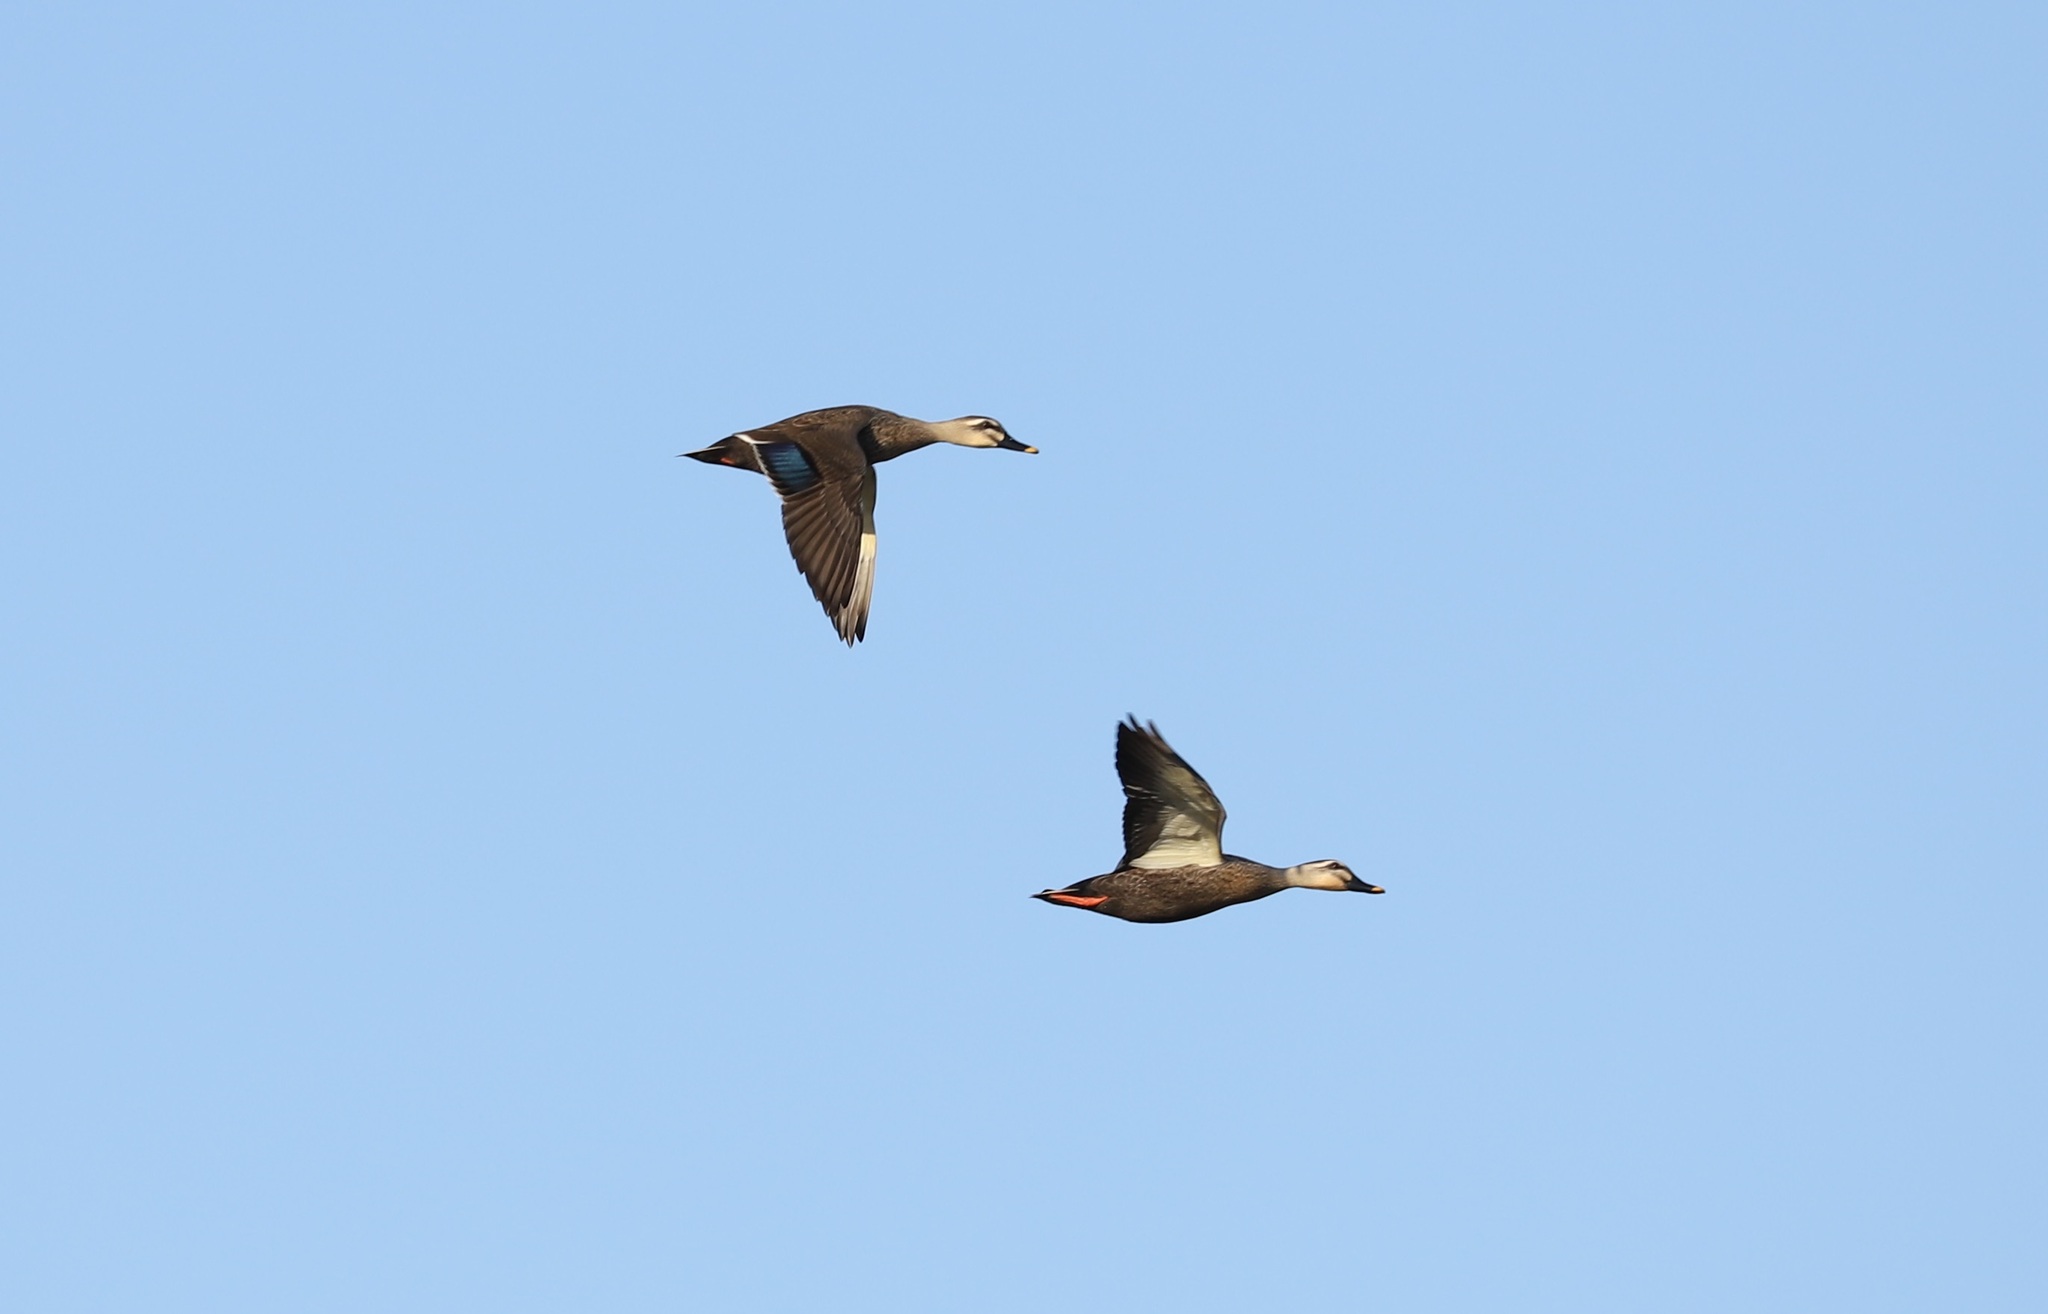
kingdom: Animalia
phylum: Chordata
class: Aves
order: Anseriformes
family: Anatidae
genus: Anas
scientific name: Anas zonorhyncha
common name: Eastern spot-billed duck
